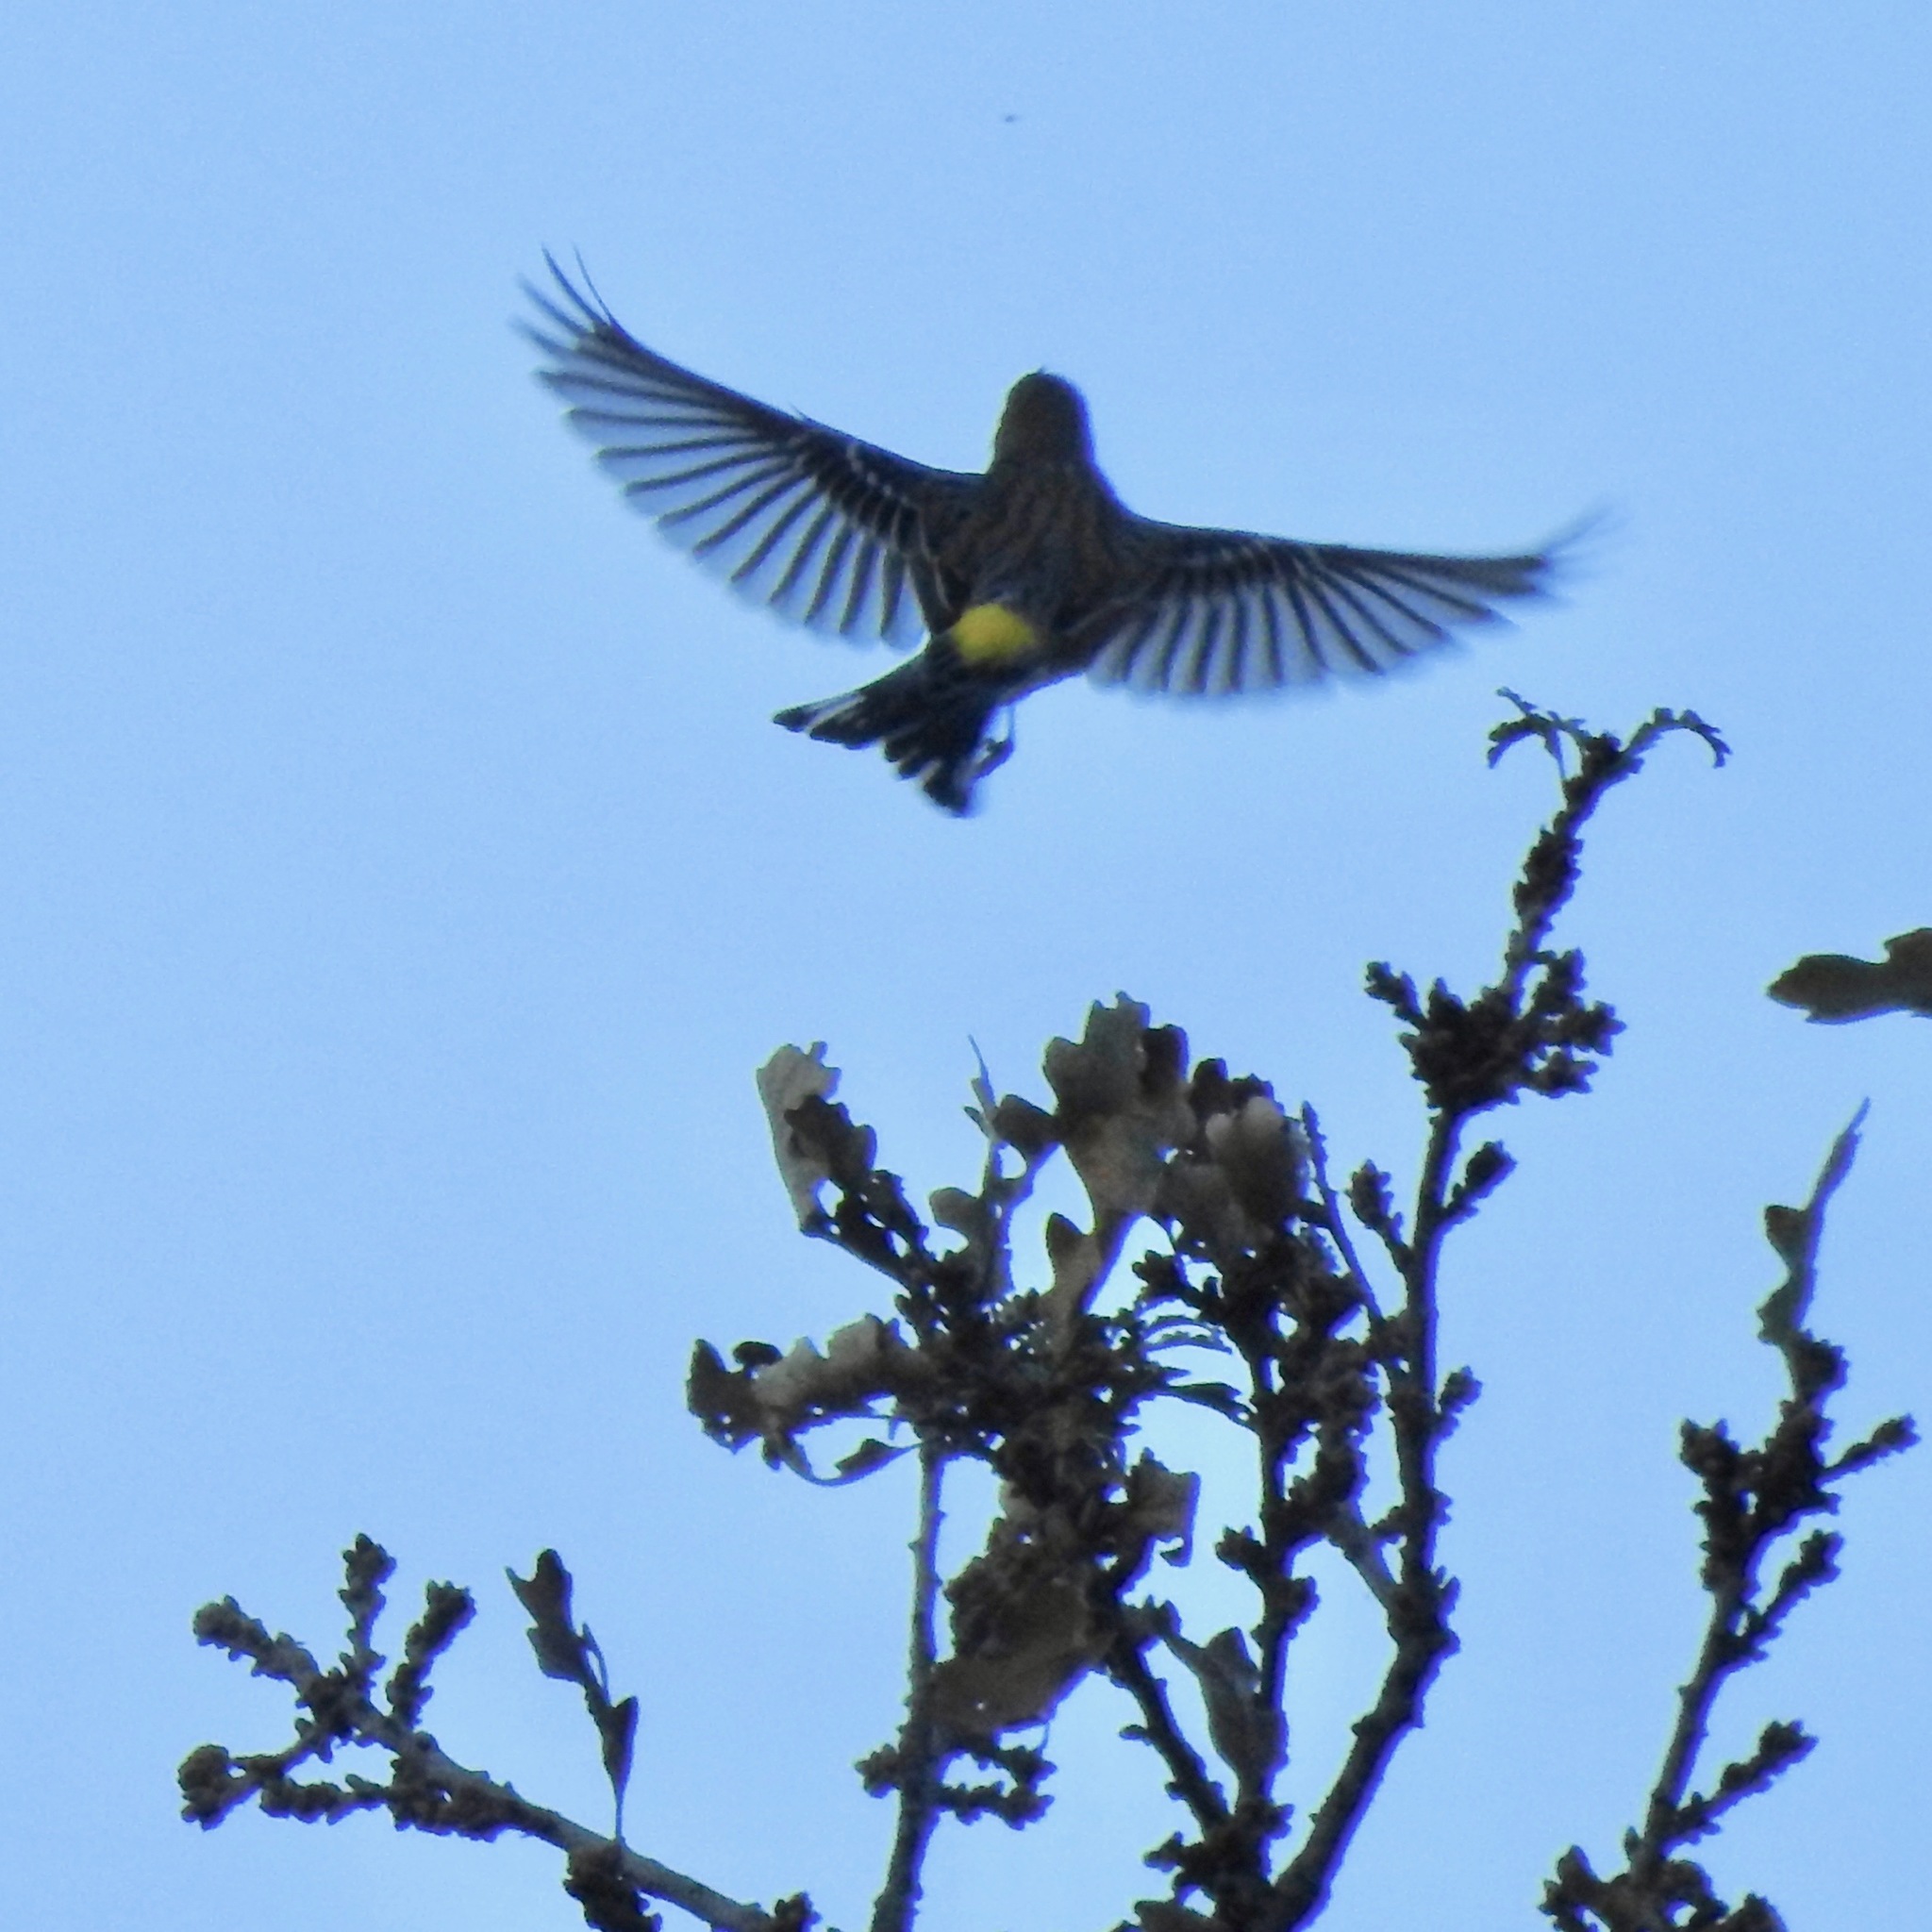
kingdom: Animalia
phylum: Chordata
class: Aves
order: Passeriformes
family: Parulidae
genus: Setophaga
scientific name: Setophaga coronata
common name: Myrtle warbler
